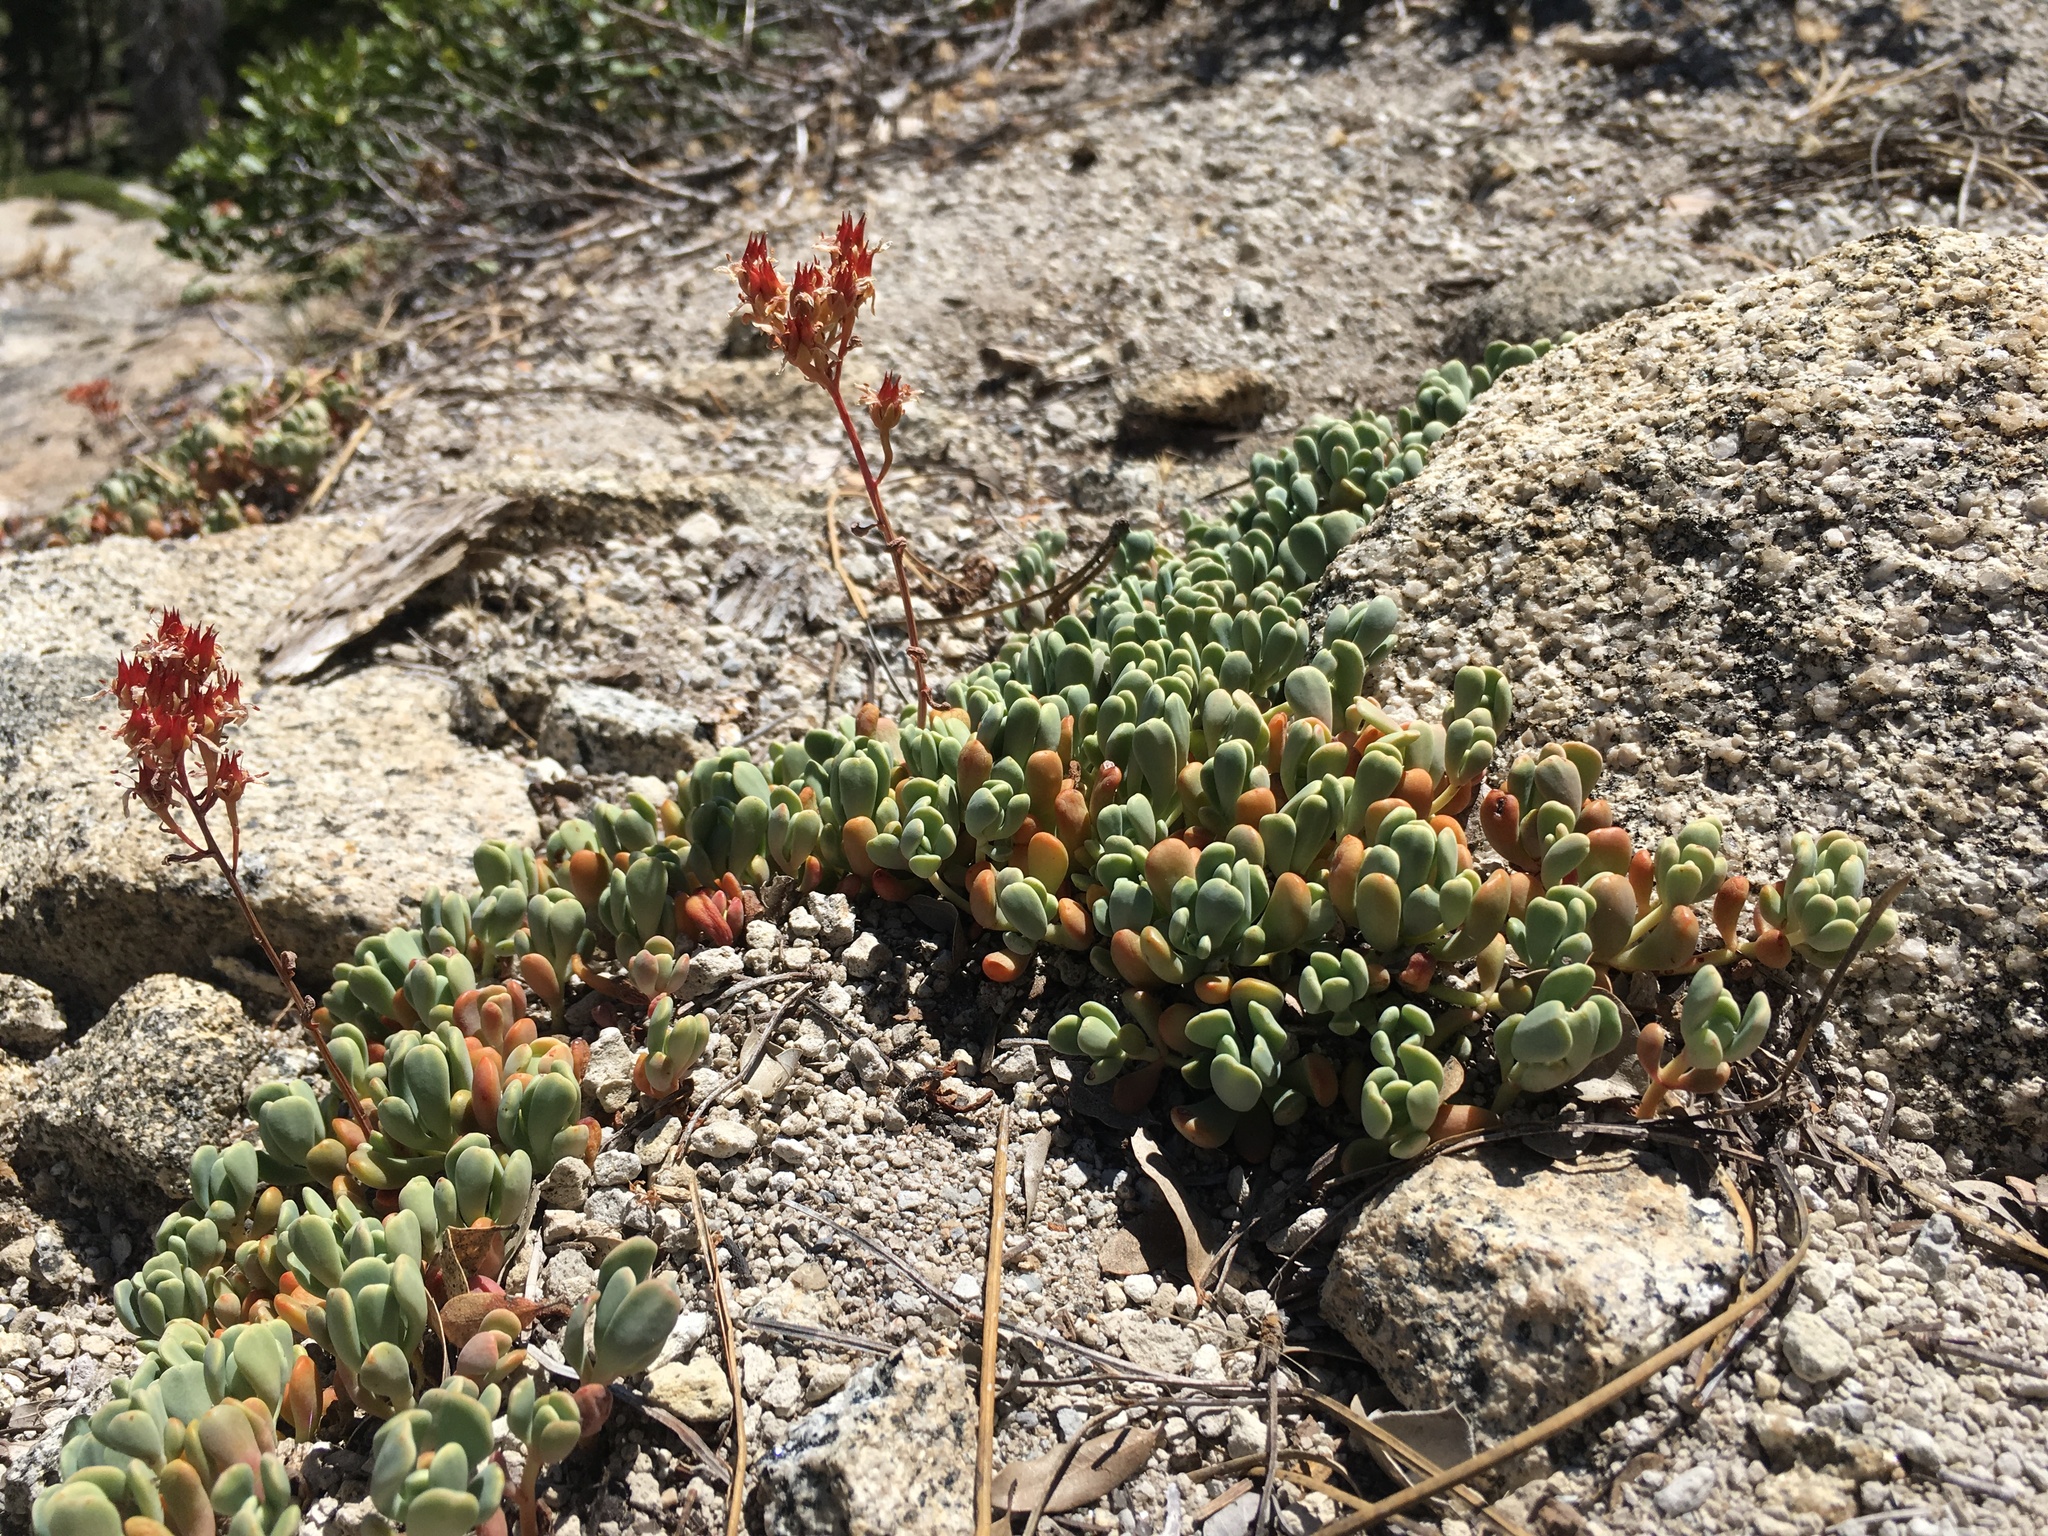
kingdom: Plantae
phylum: Tracheophyta
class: Magnoliopsida
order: Saxifragales
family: Crassulaceae
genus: Sedum
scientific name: Sedum obtusatum
